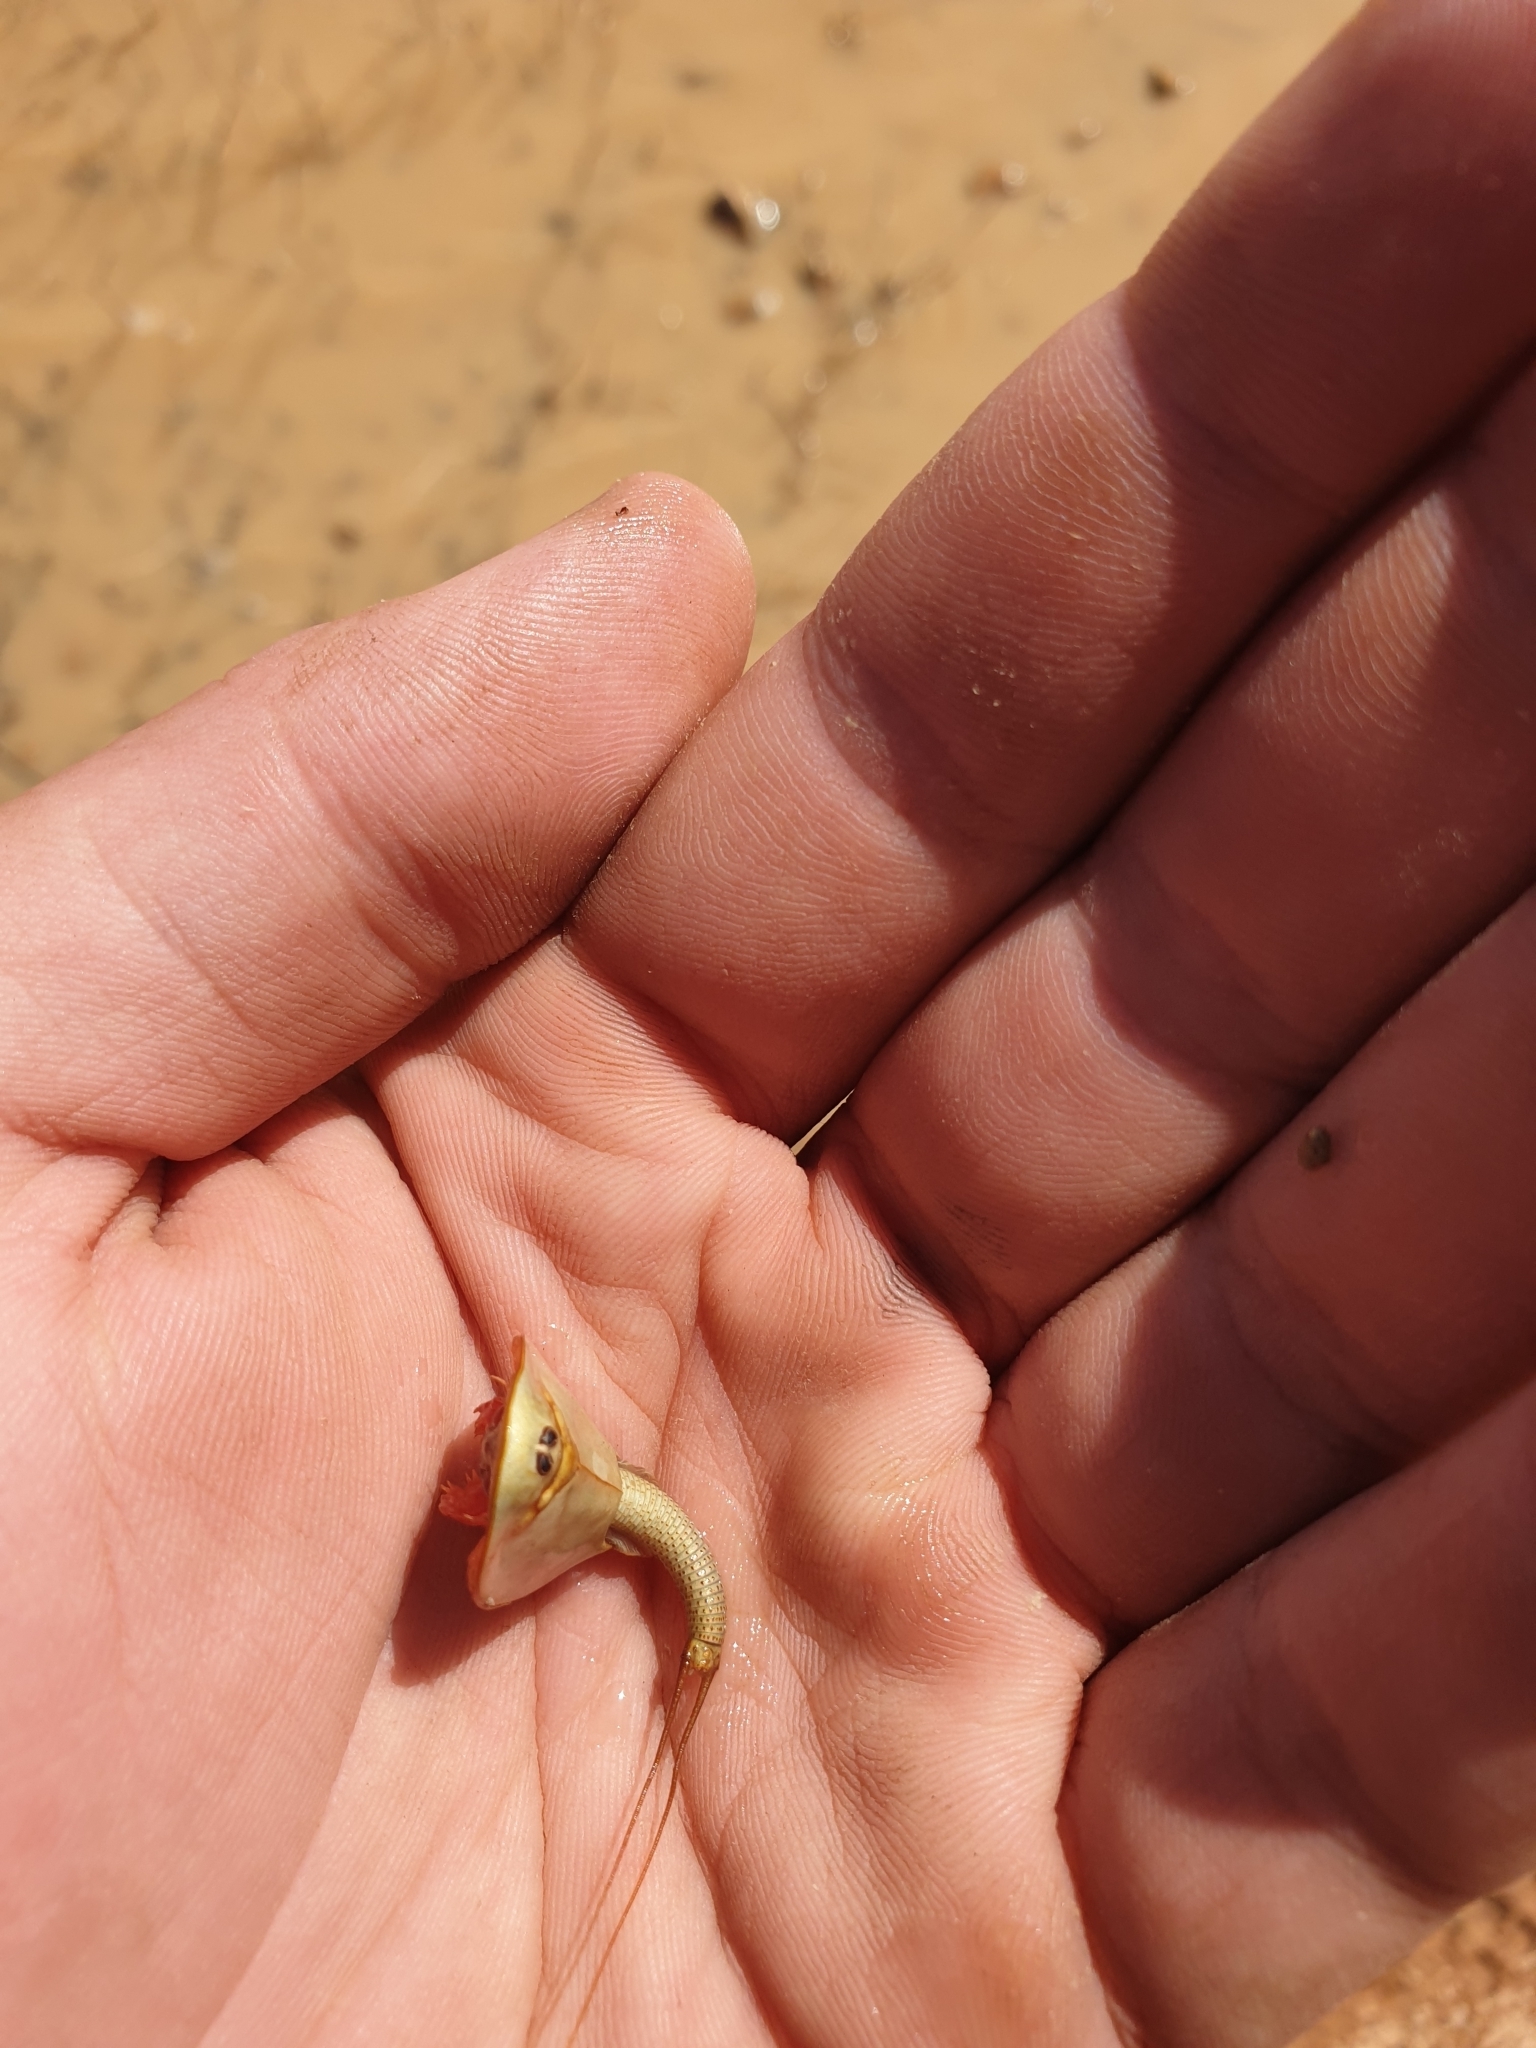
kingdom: Animalia
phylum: Arthropoda
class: Branchiopoda
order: Notostraca
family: Triopsidae
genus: Triops
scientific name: Triops australiensis
